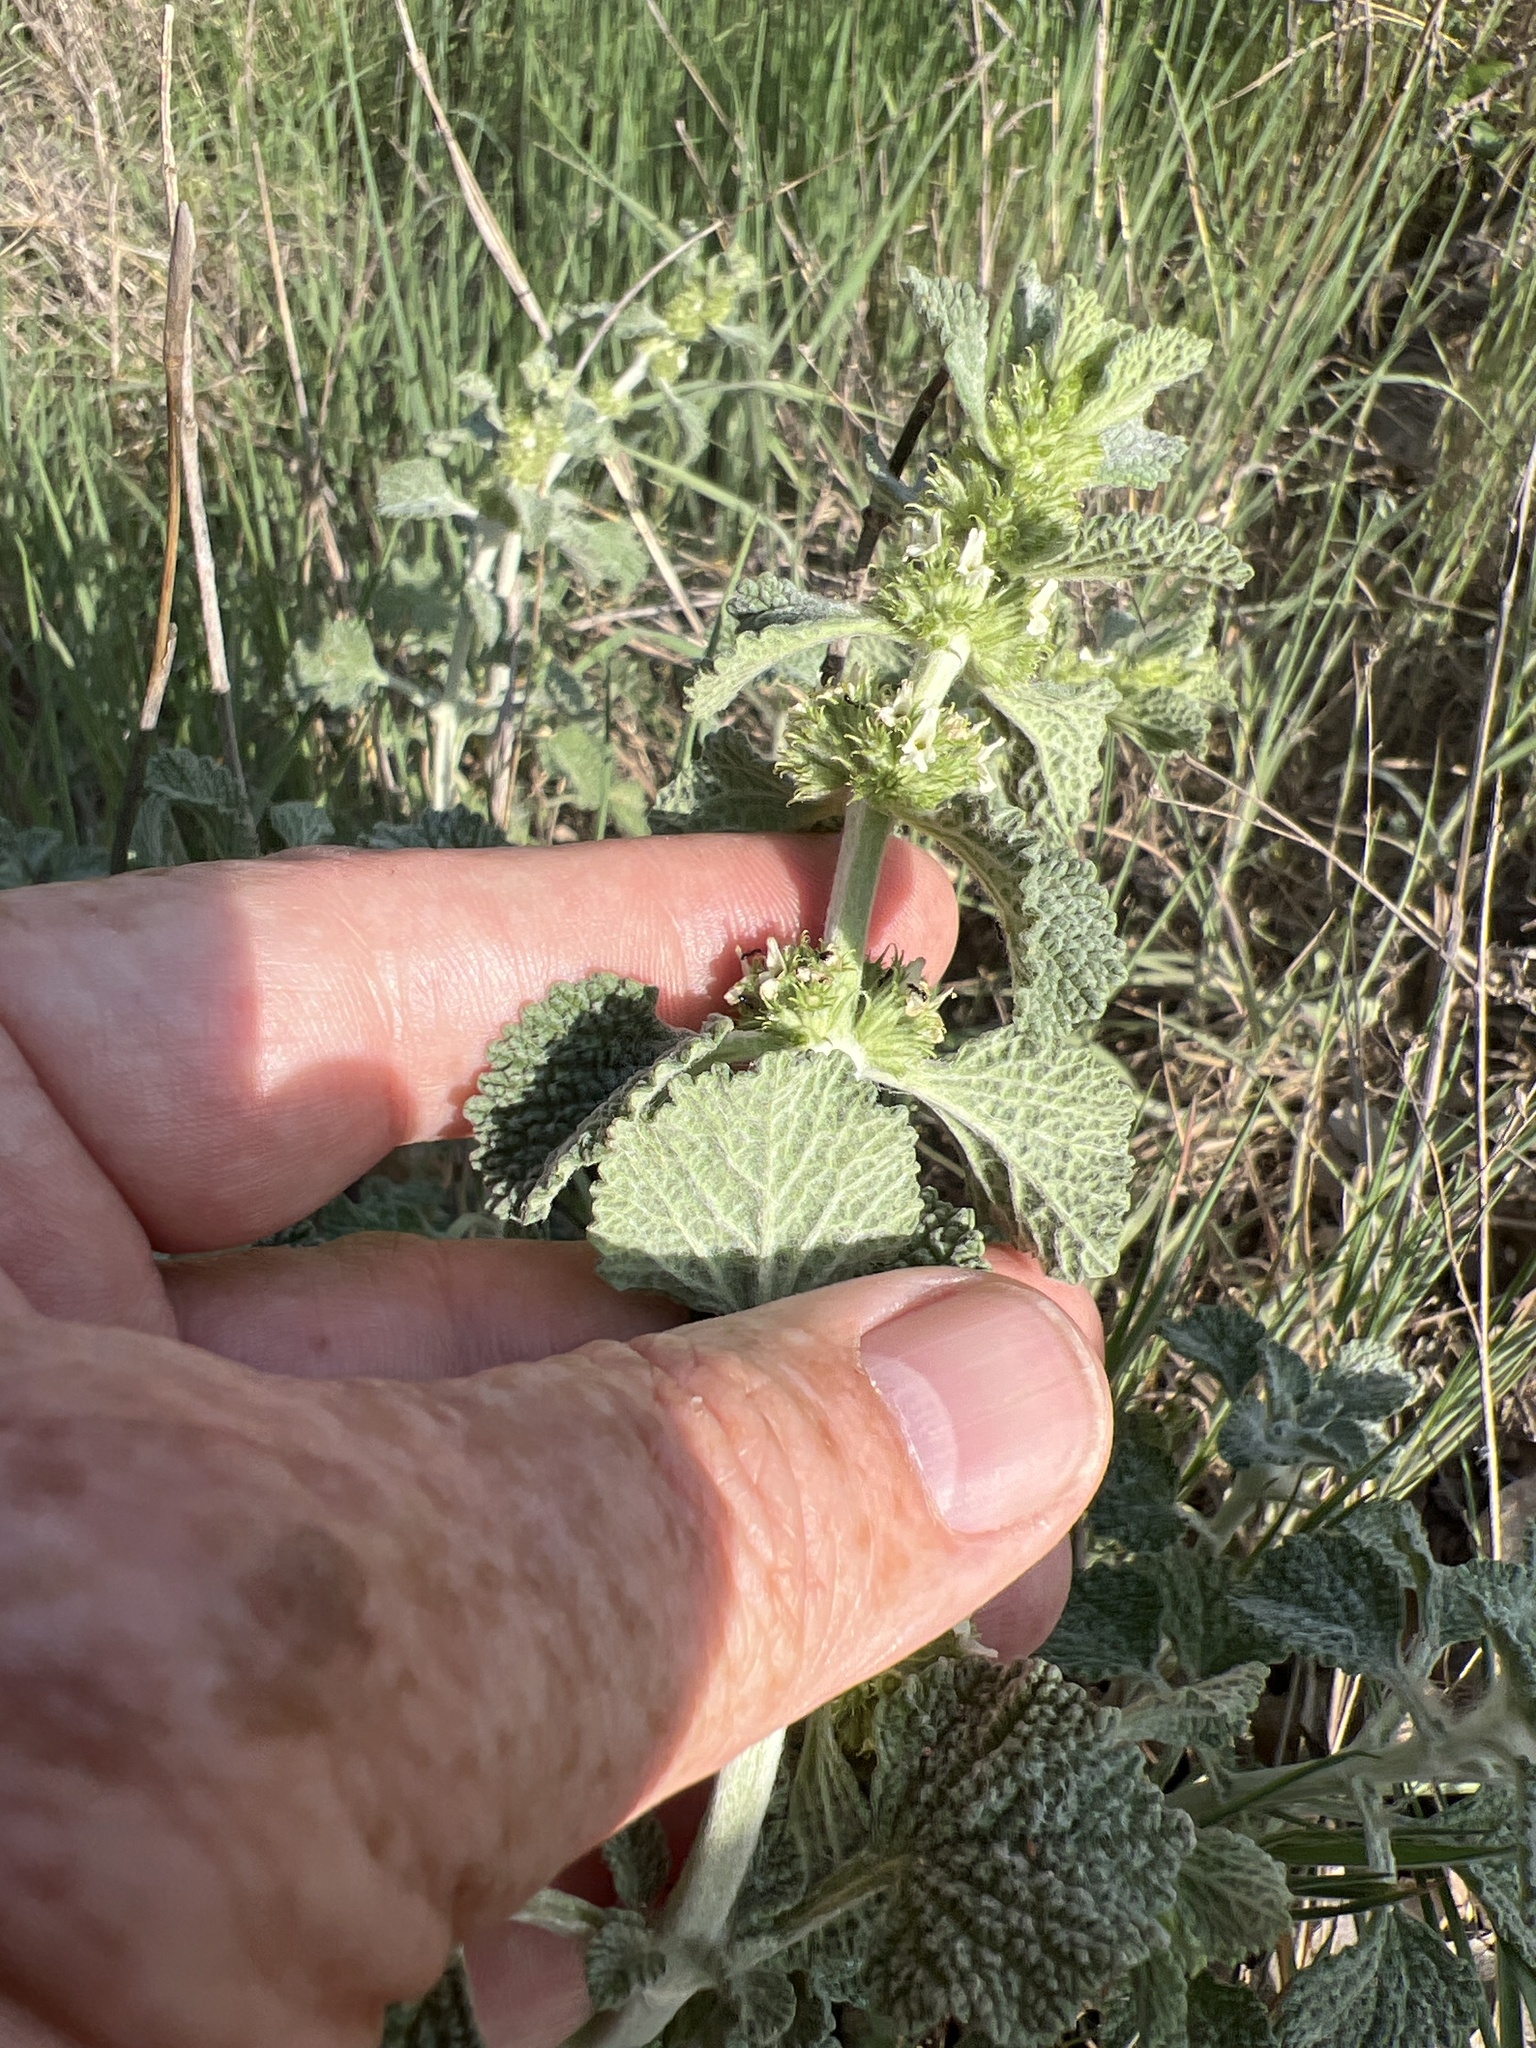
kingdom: Plantae
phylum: Tracheophyta
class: Magnoliopsida
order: Lamiales
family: Lamiaceae
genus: Marrubium
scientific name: Marrubium vulgare
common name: Horehound
